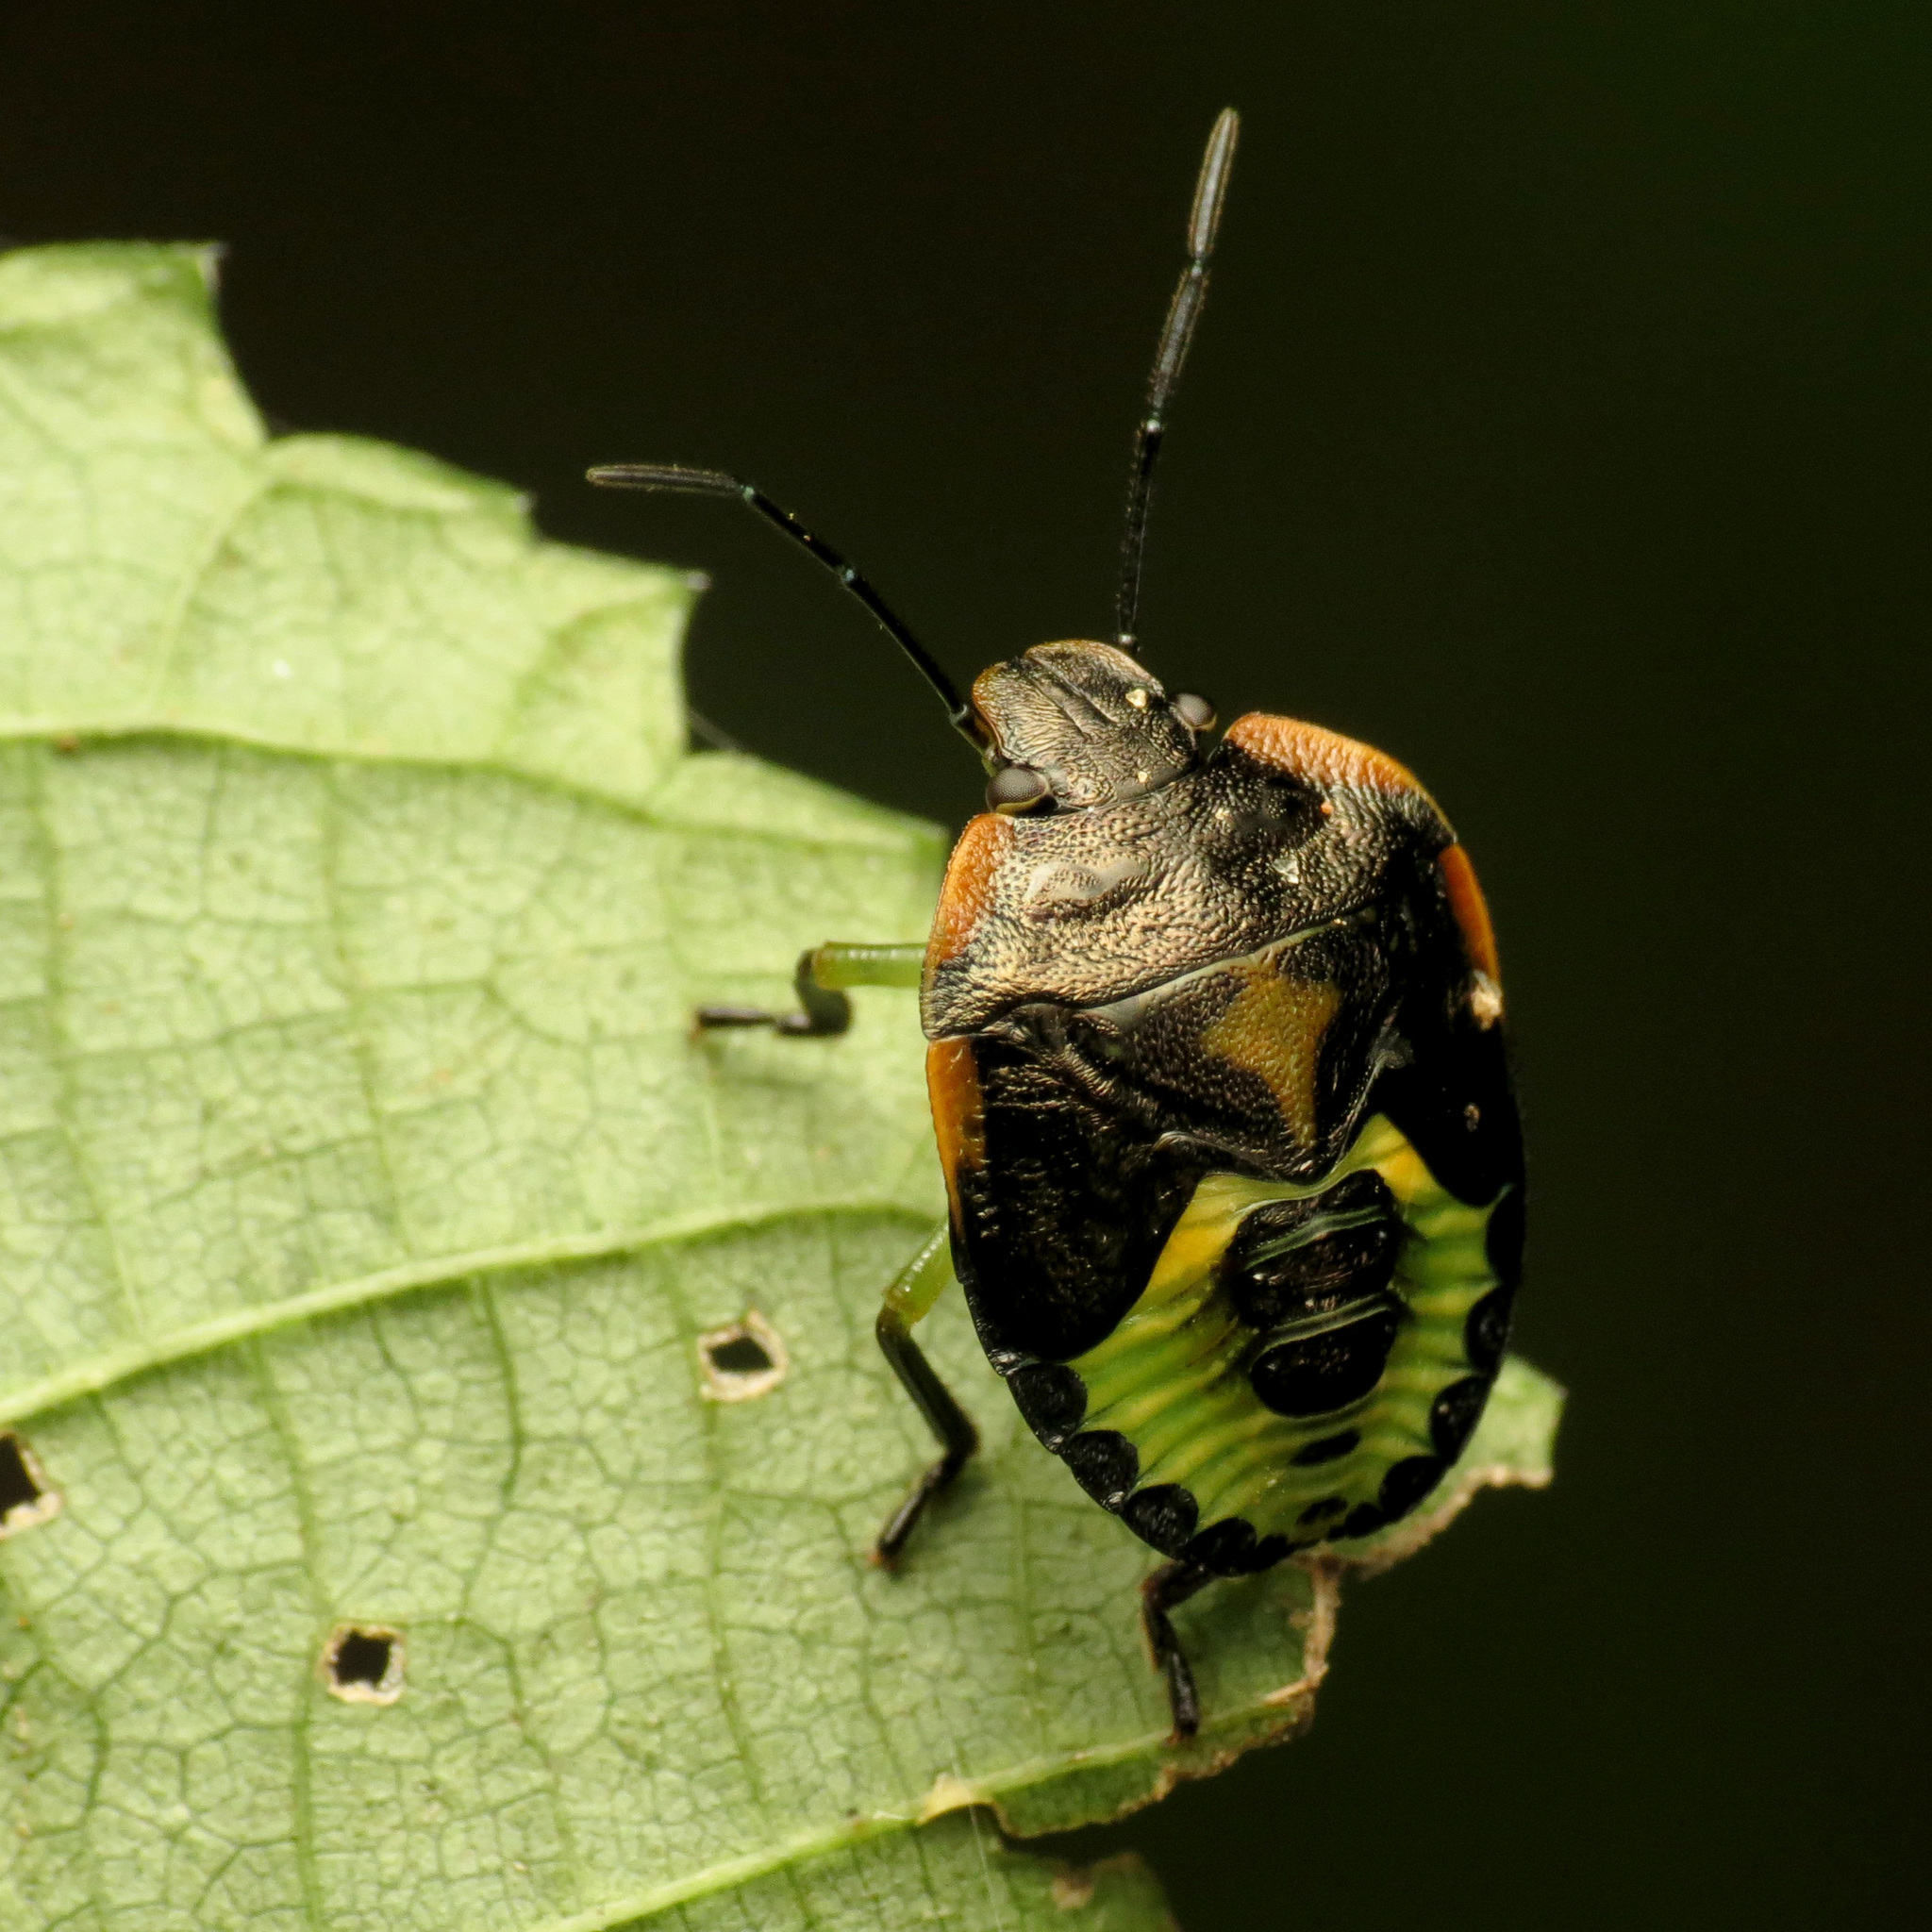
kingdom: Animalia
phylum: Arthropoda
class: Insecta
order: Hemiptera
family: Pentatomidae
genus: Chinavia
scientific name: Chinavia hilaris
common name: Green stink bug
